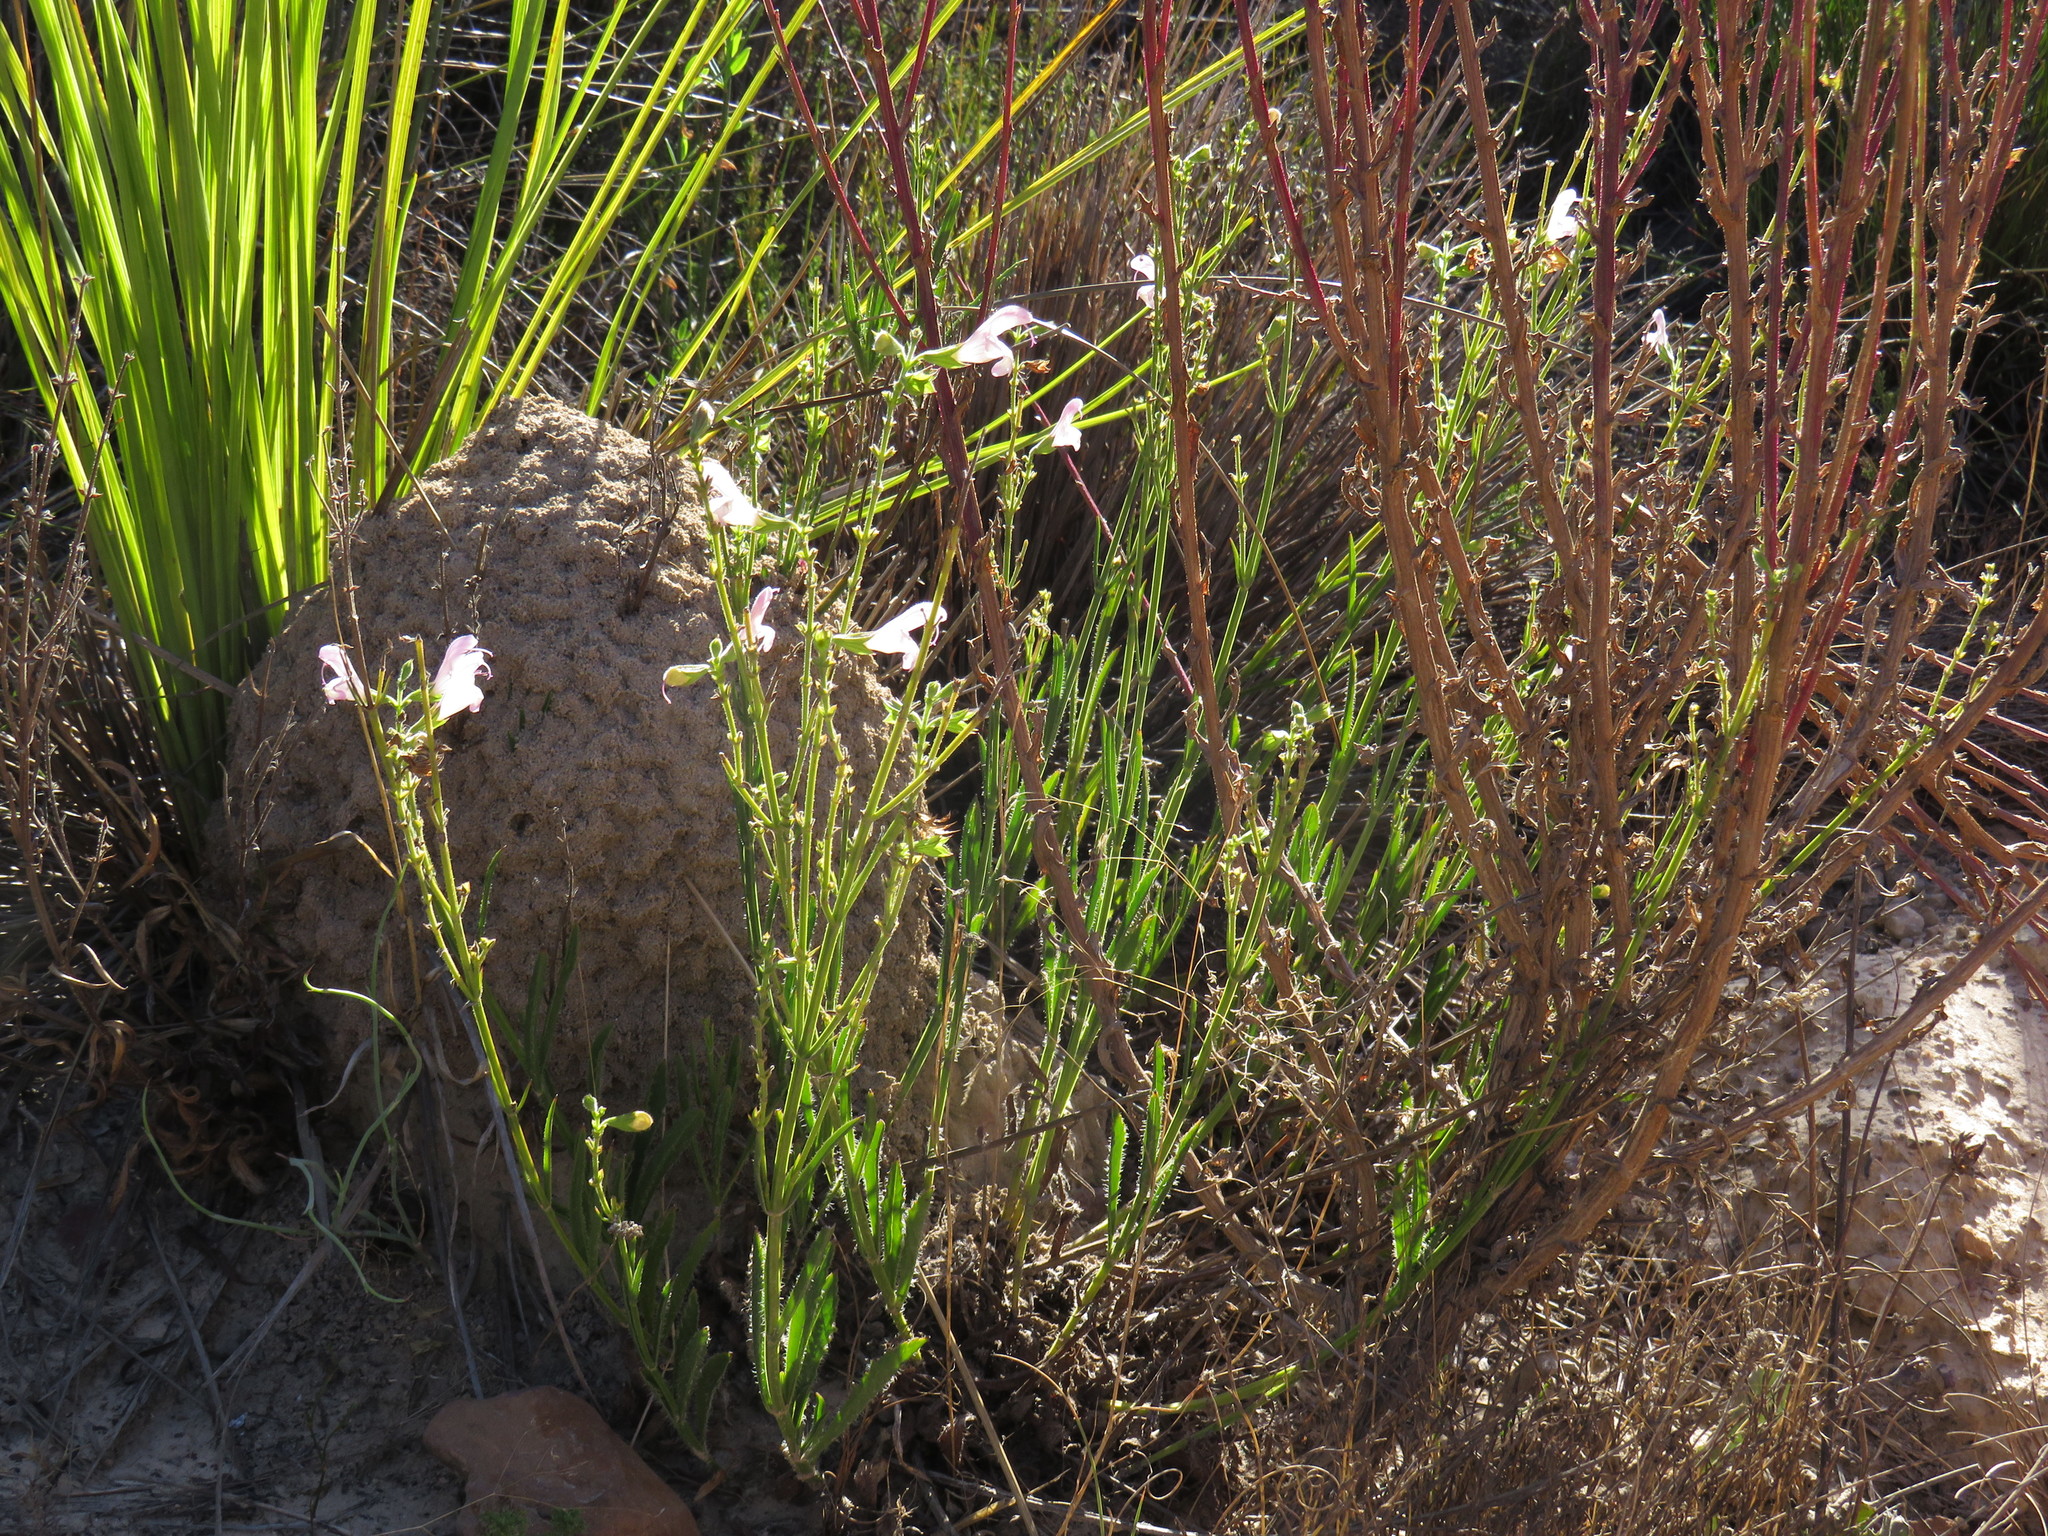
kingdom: Plantae
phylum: Tracheophyta
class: Magnoliopsida
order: Lamiales
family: Lamiaceae
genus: Salvia
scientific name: Salvia granitica
